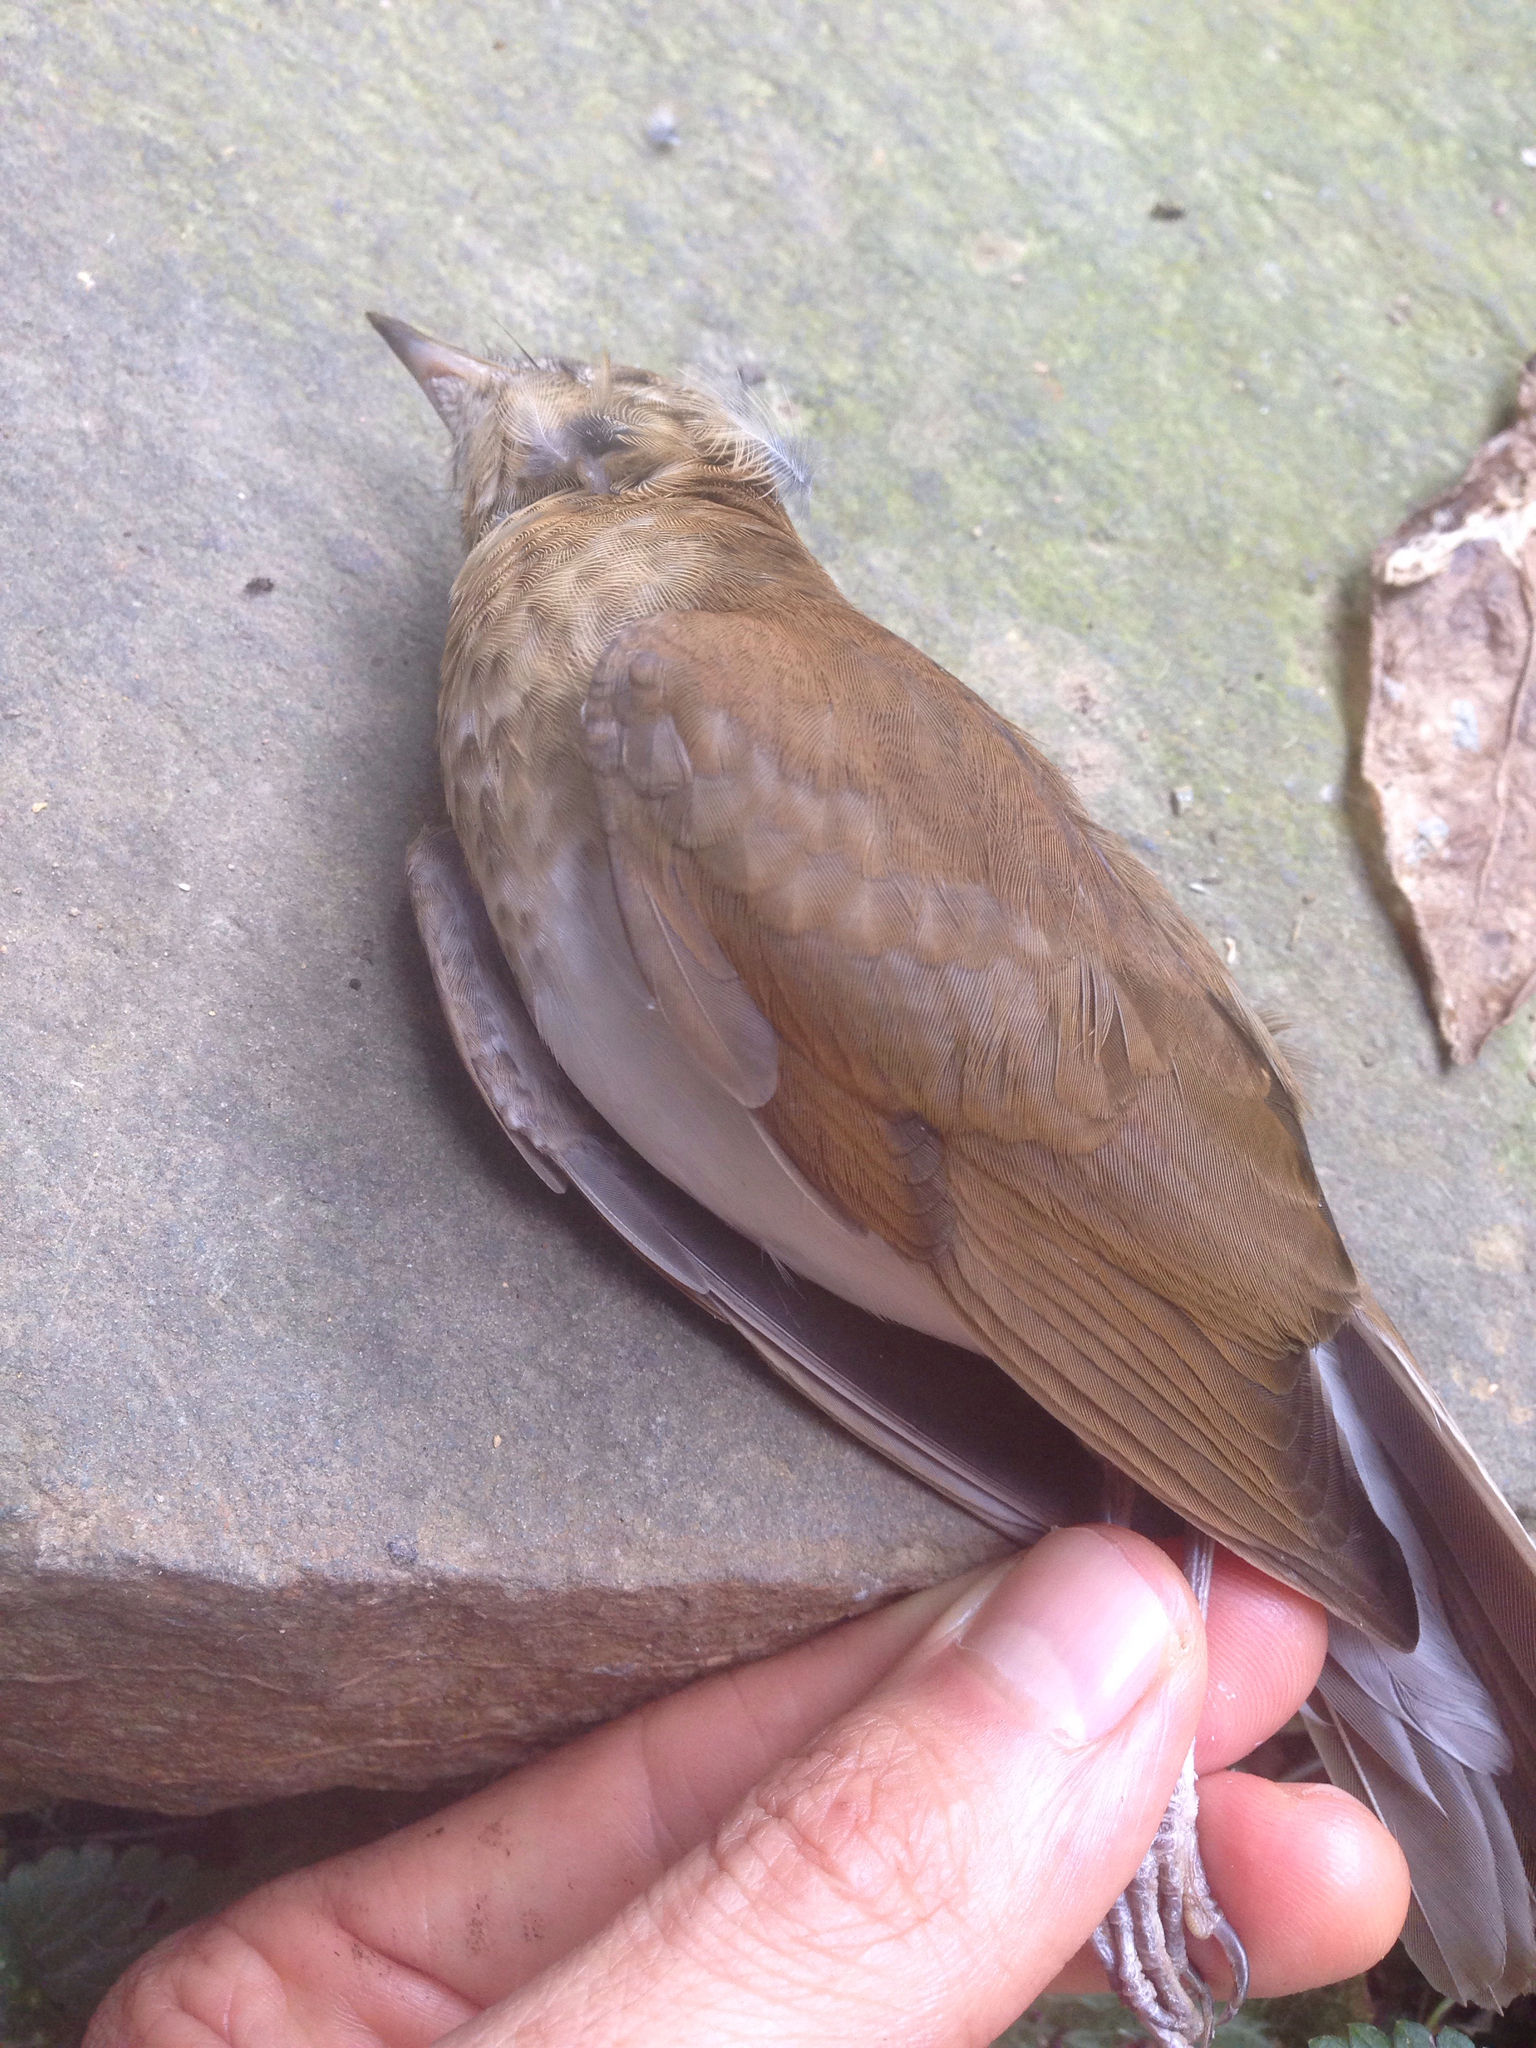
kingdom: Animalia
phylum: Chordata
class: Aves
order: Passeriformes
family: Turdidae
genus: Catharus
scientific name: Catharus fuscescens
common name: Veery
